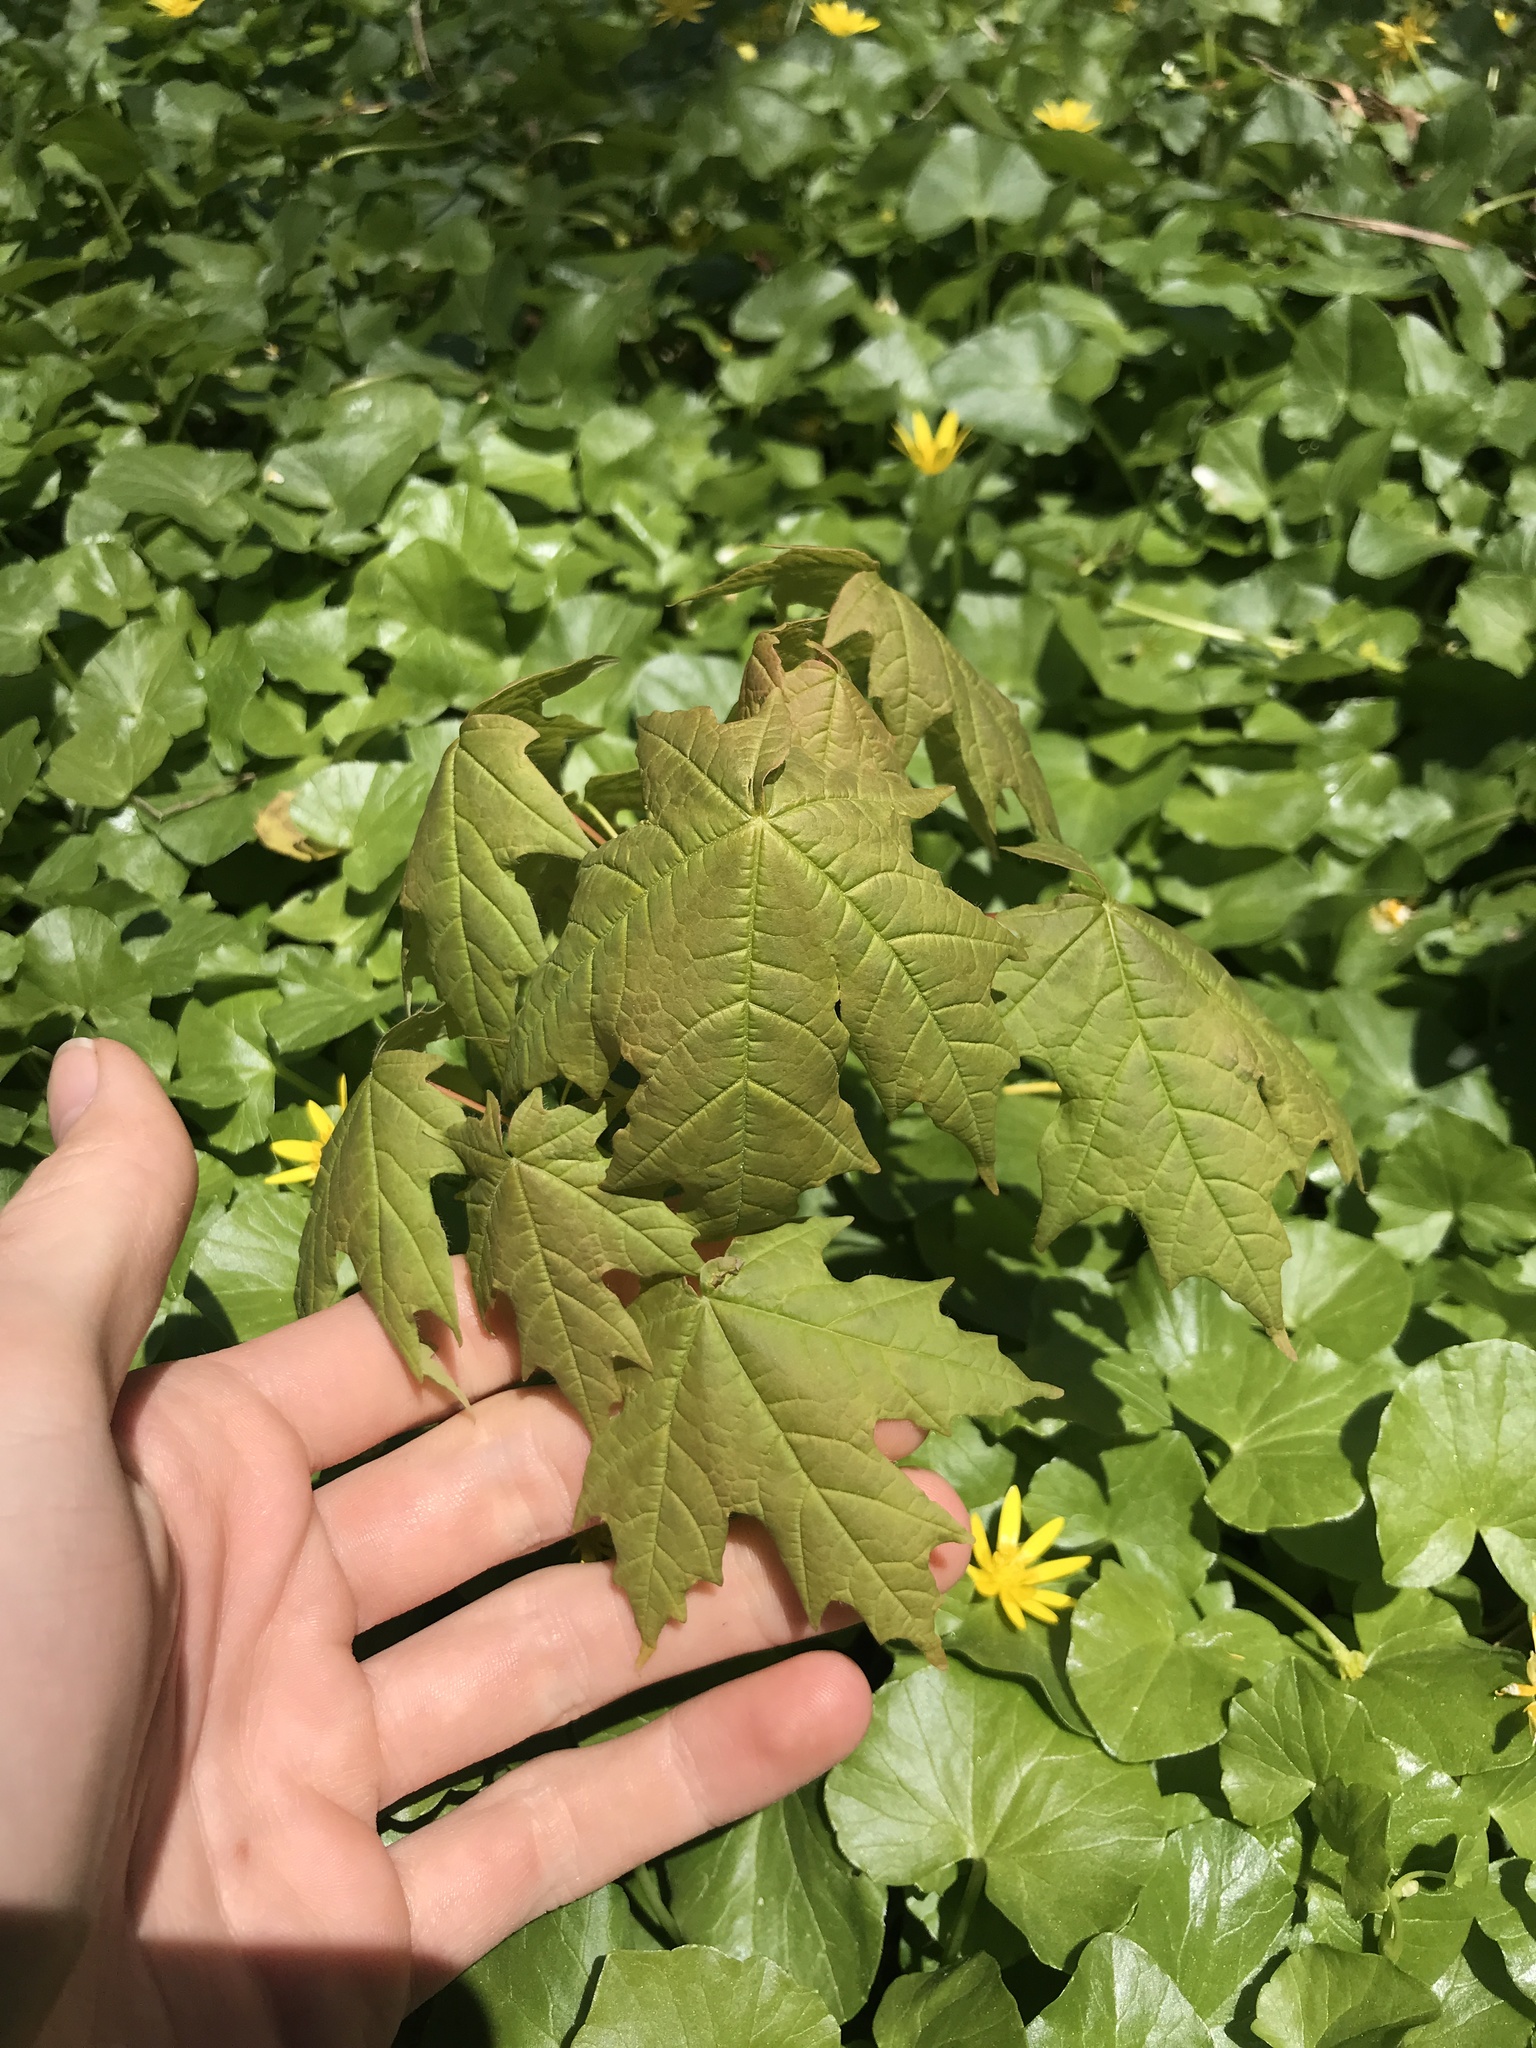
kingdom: Plantae
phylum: Tracheophyta
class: Magnoliopsida
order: Sapindales
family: Sapindaceae
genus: Acer
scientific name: Acer saccharum
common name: Sugar maple
